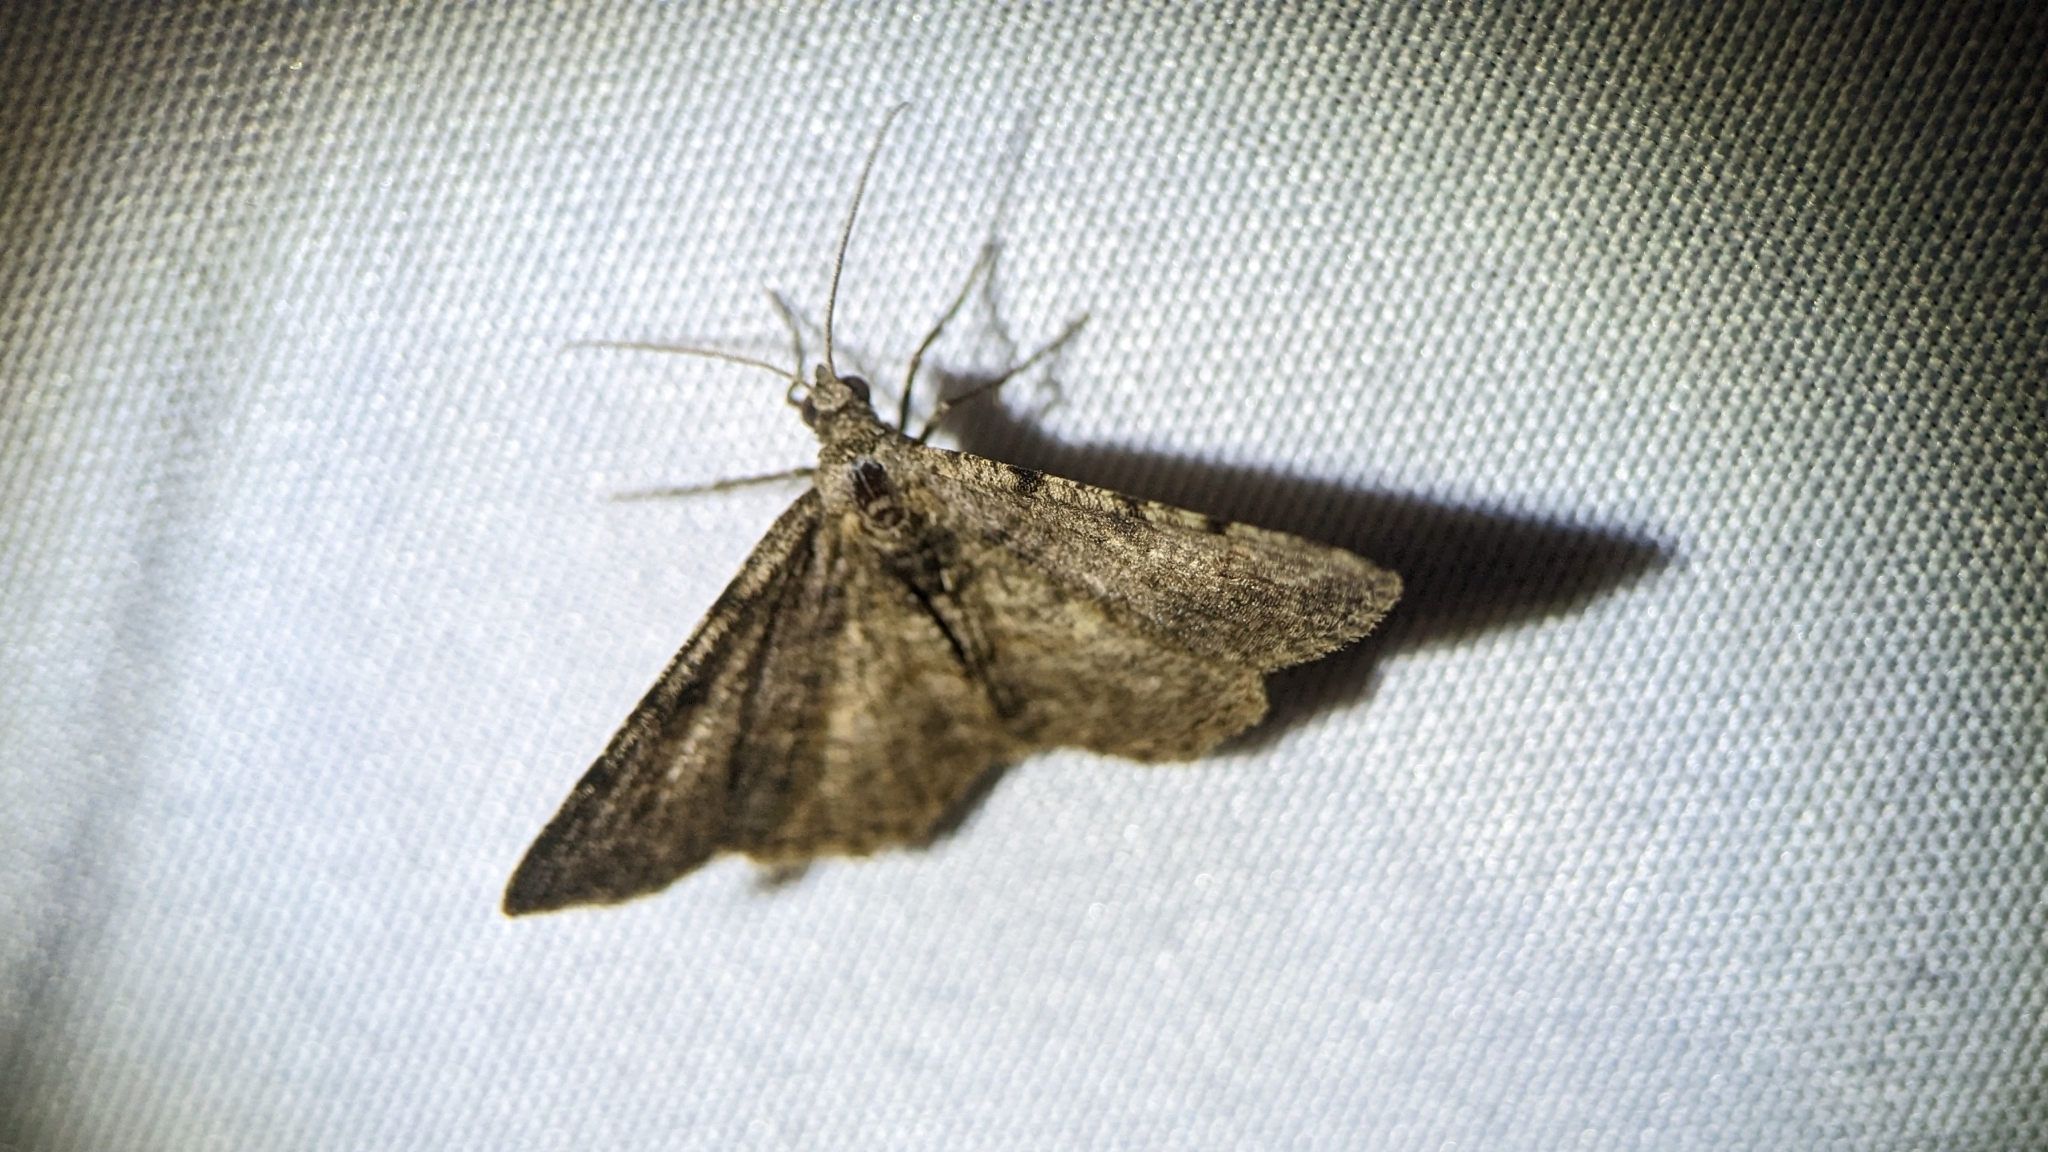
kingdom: Animalia
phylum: Arthropoda
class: Insecta
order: Lepidoptera
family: Geometridae
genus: Digrammia
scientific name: Digrammia gnophosaria
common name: Hollow-spotted angle
